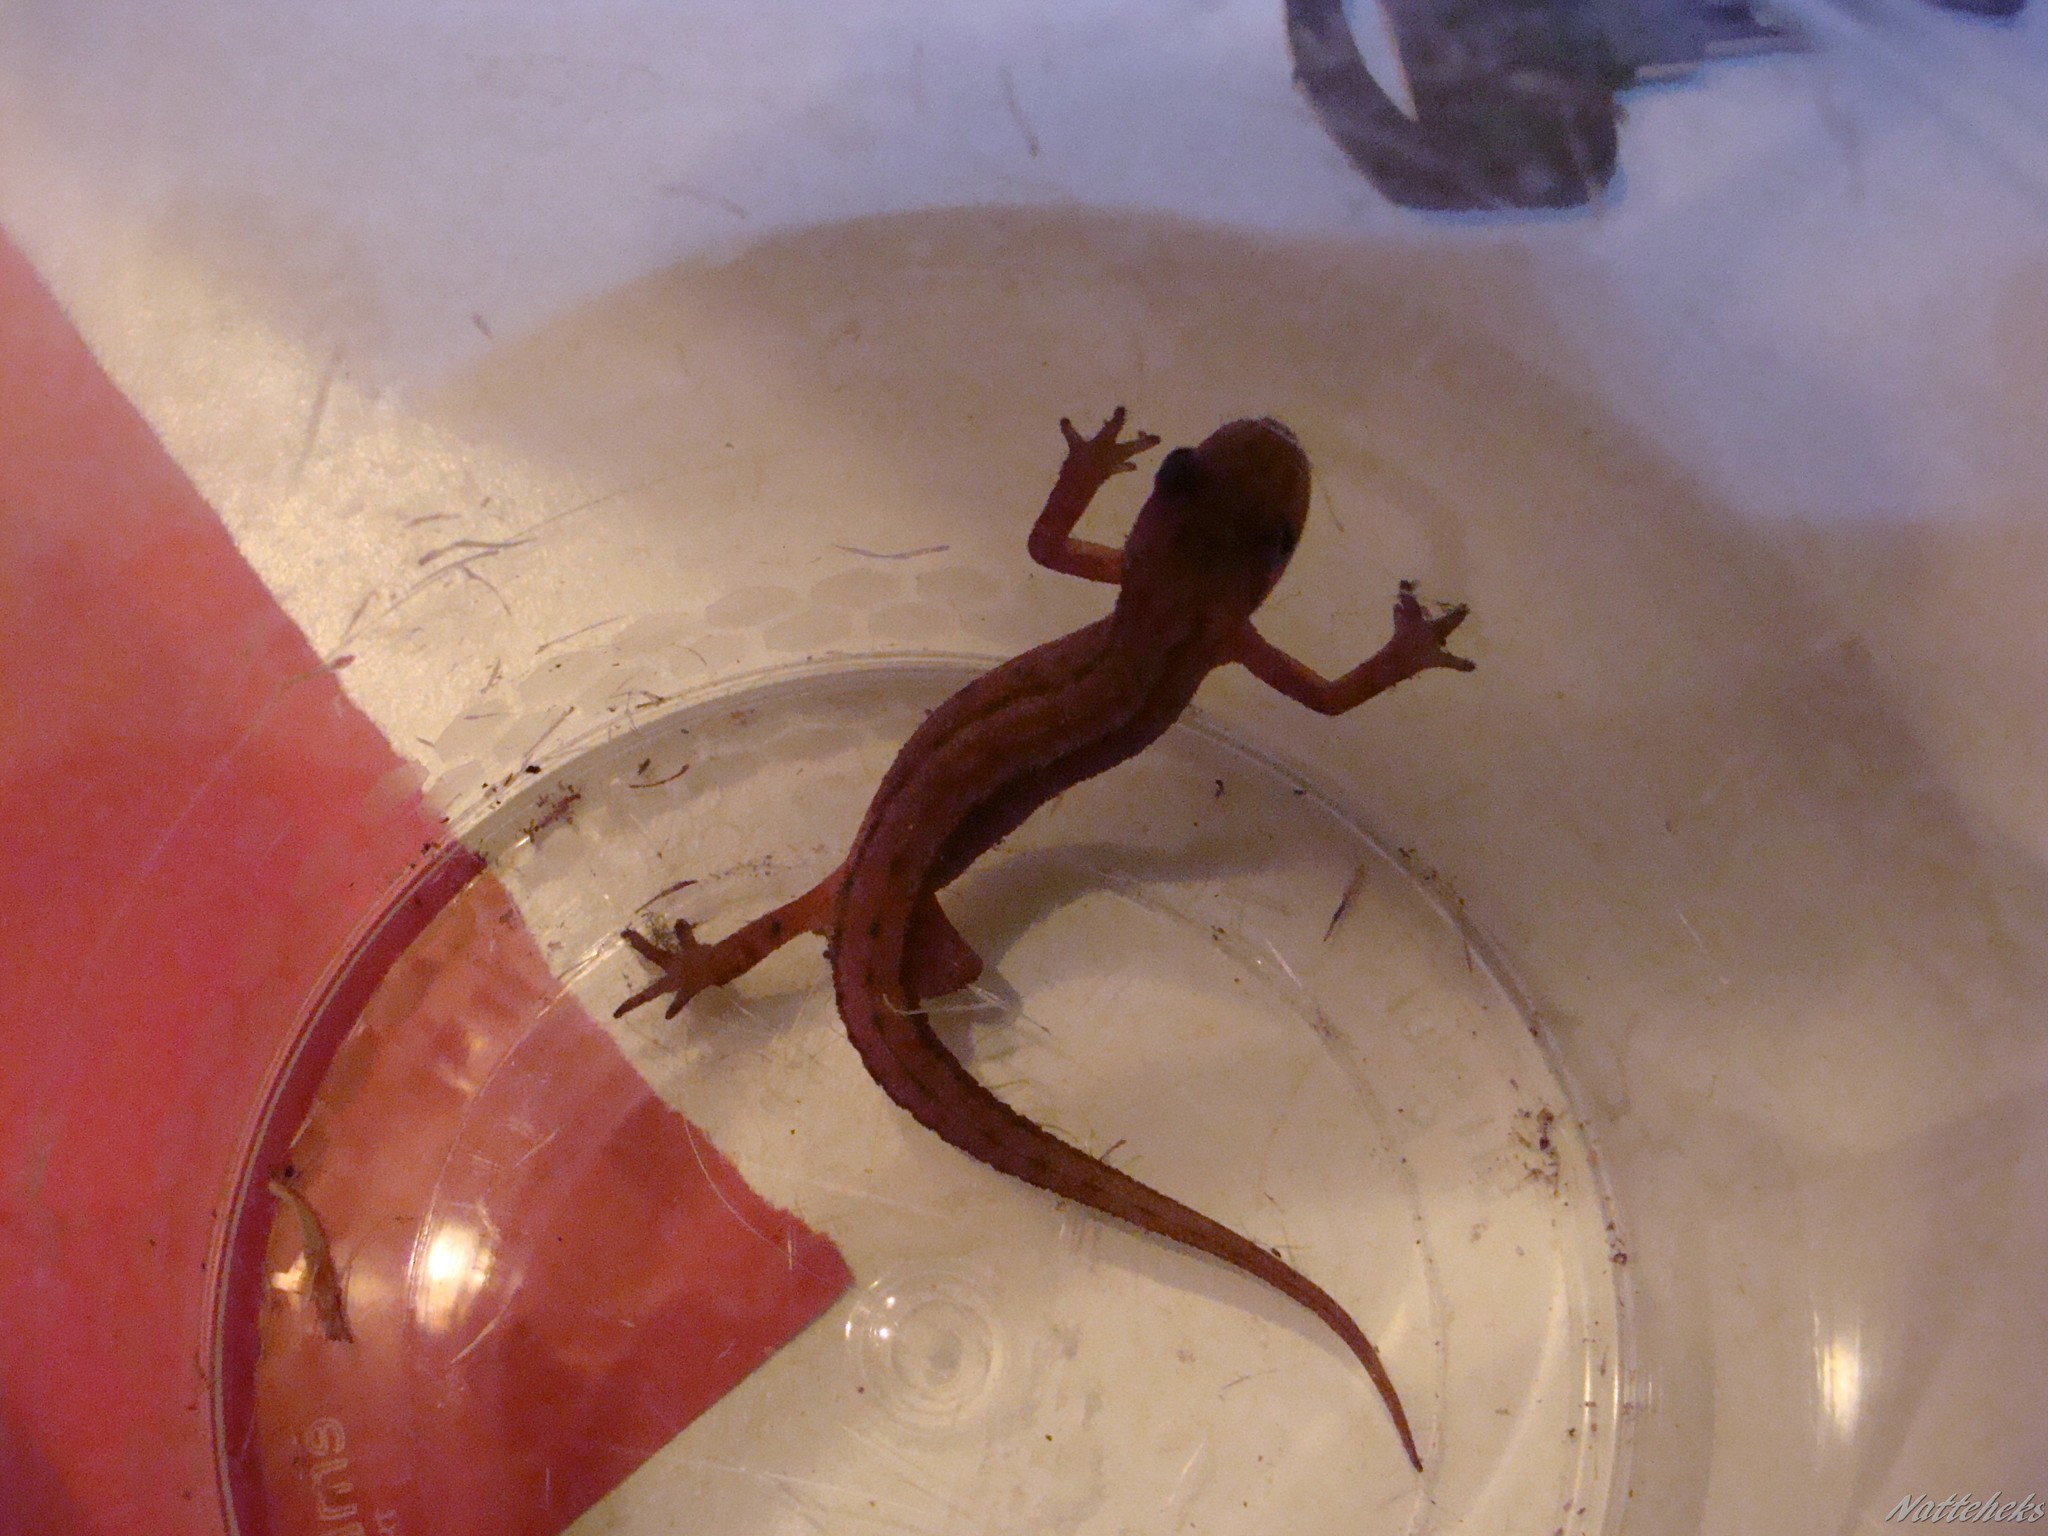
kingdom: Animalia
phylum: Chordata
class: Amphibia
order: Caudata
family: Salamandridae
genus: Lissotriton
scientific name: Lissotriton vulgaris
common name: Smooth newt
